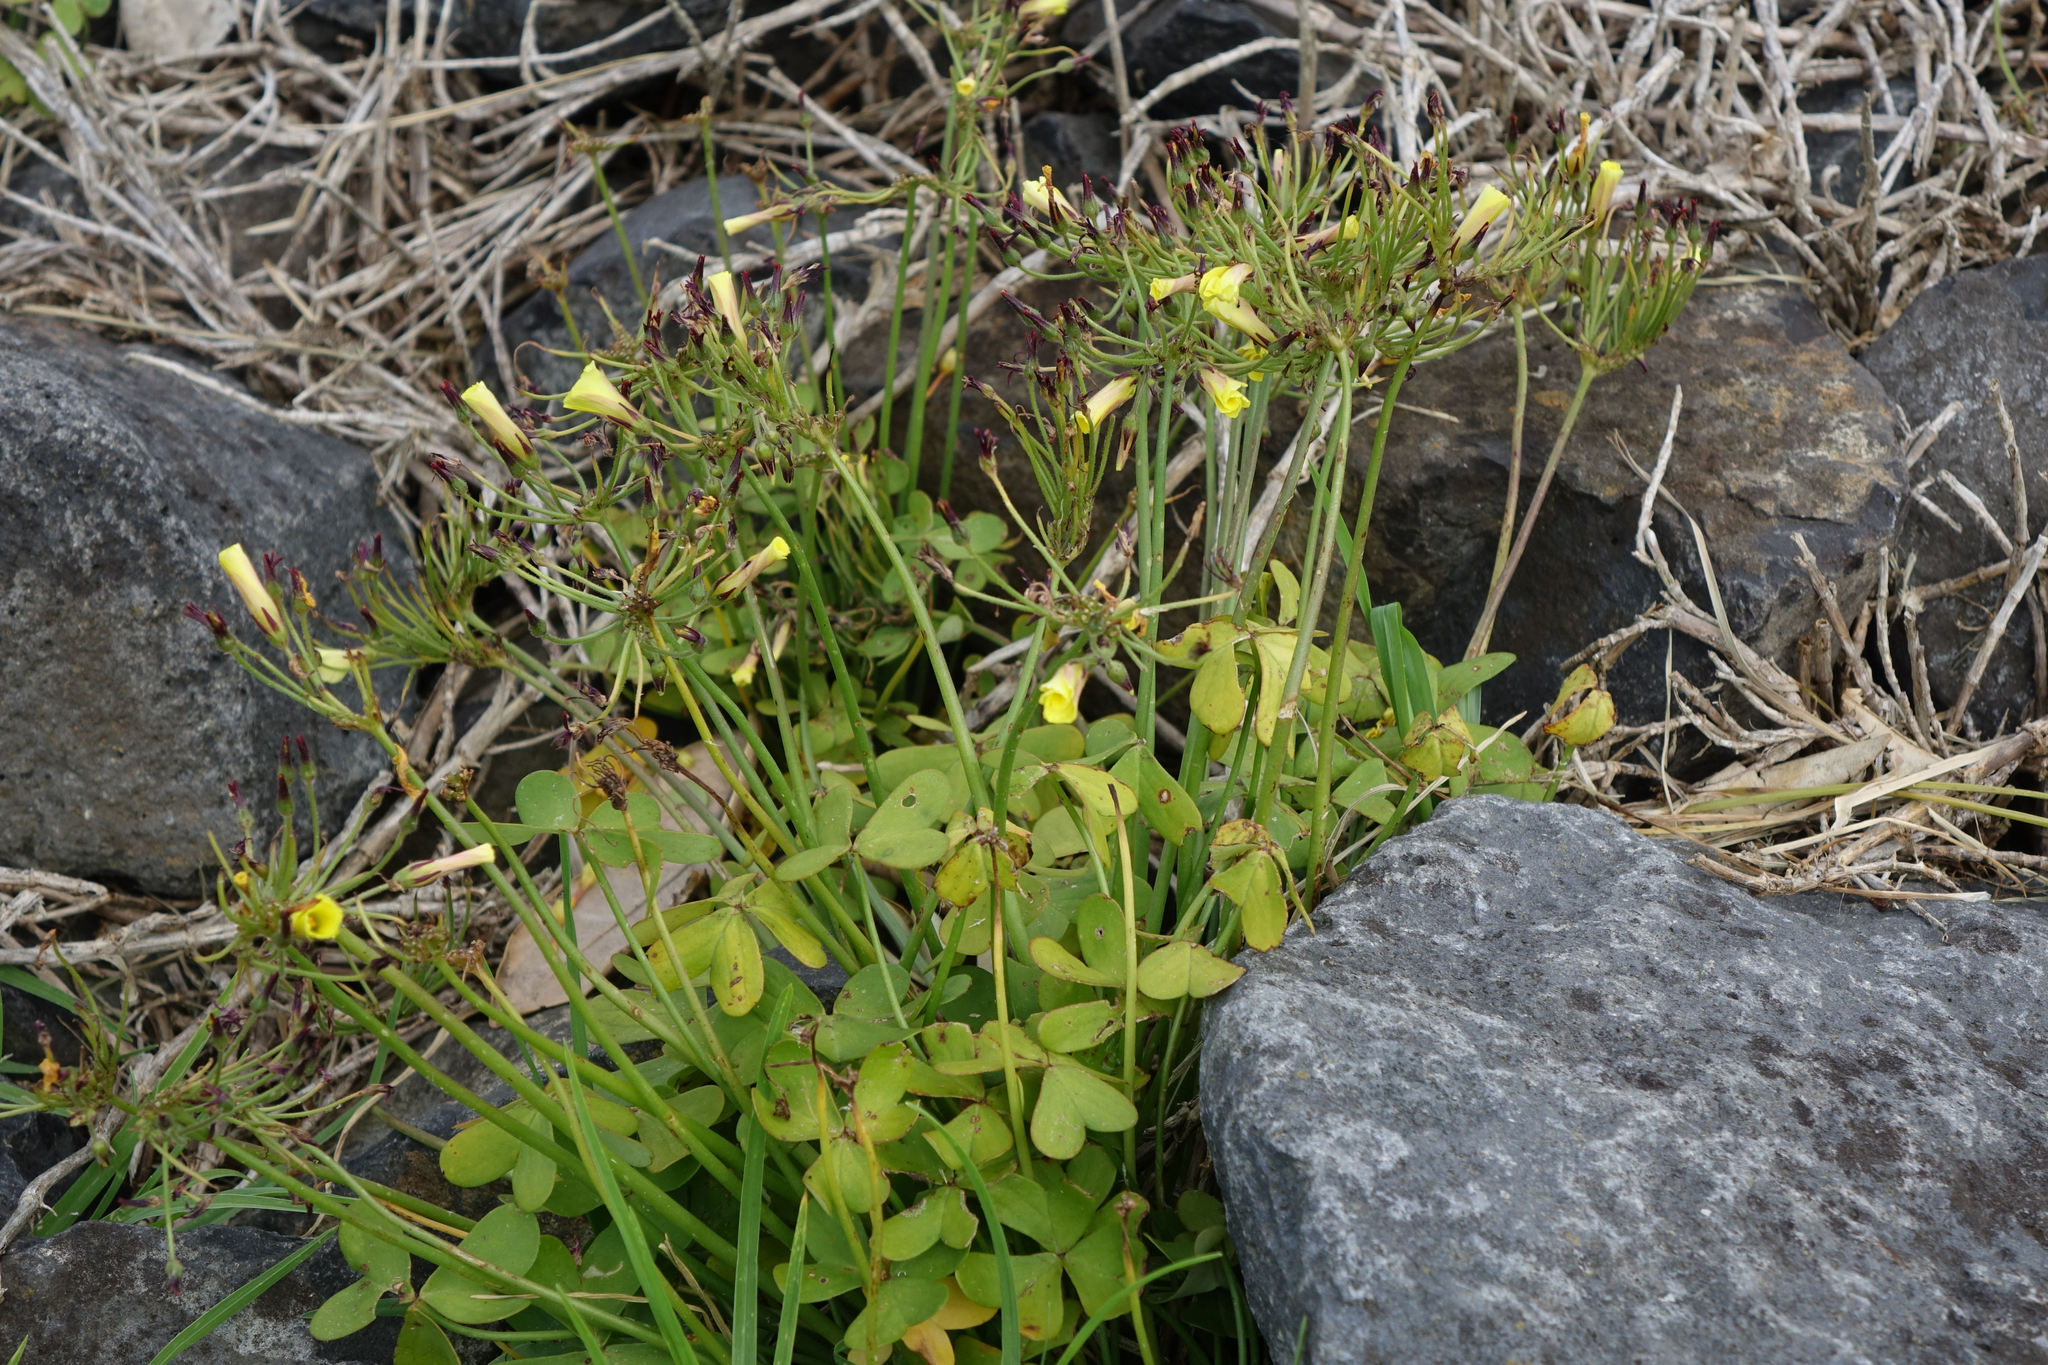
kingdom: Plantae
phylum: Tracheophyta
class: Magnoliopsida
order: Oxalidales
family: Oxalidaceae
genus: Oxalis
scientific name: Oxalis pes-caprae
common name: Bermuda-buttercup
